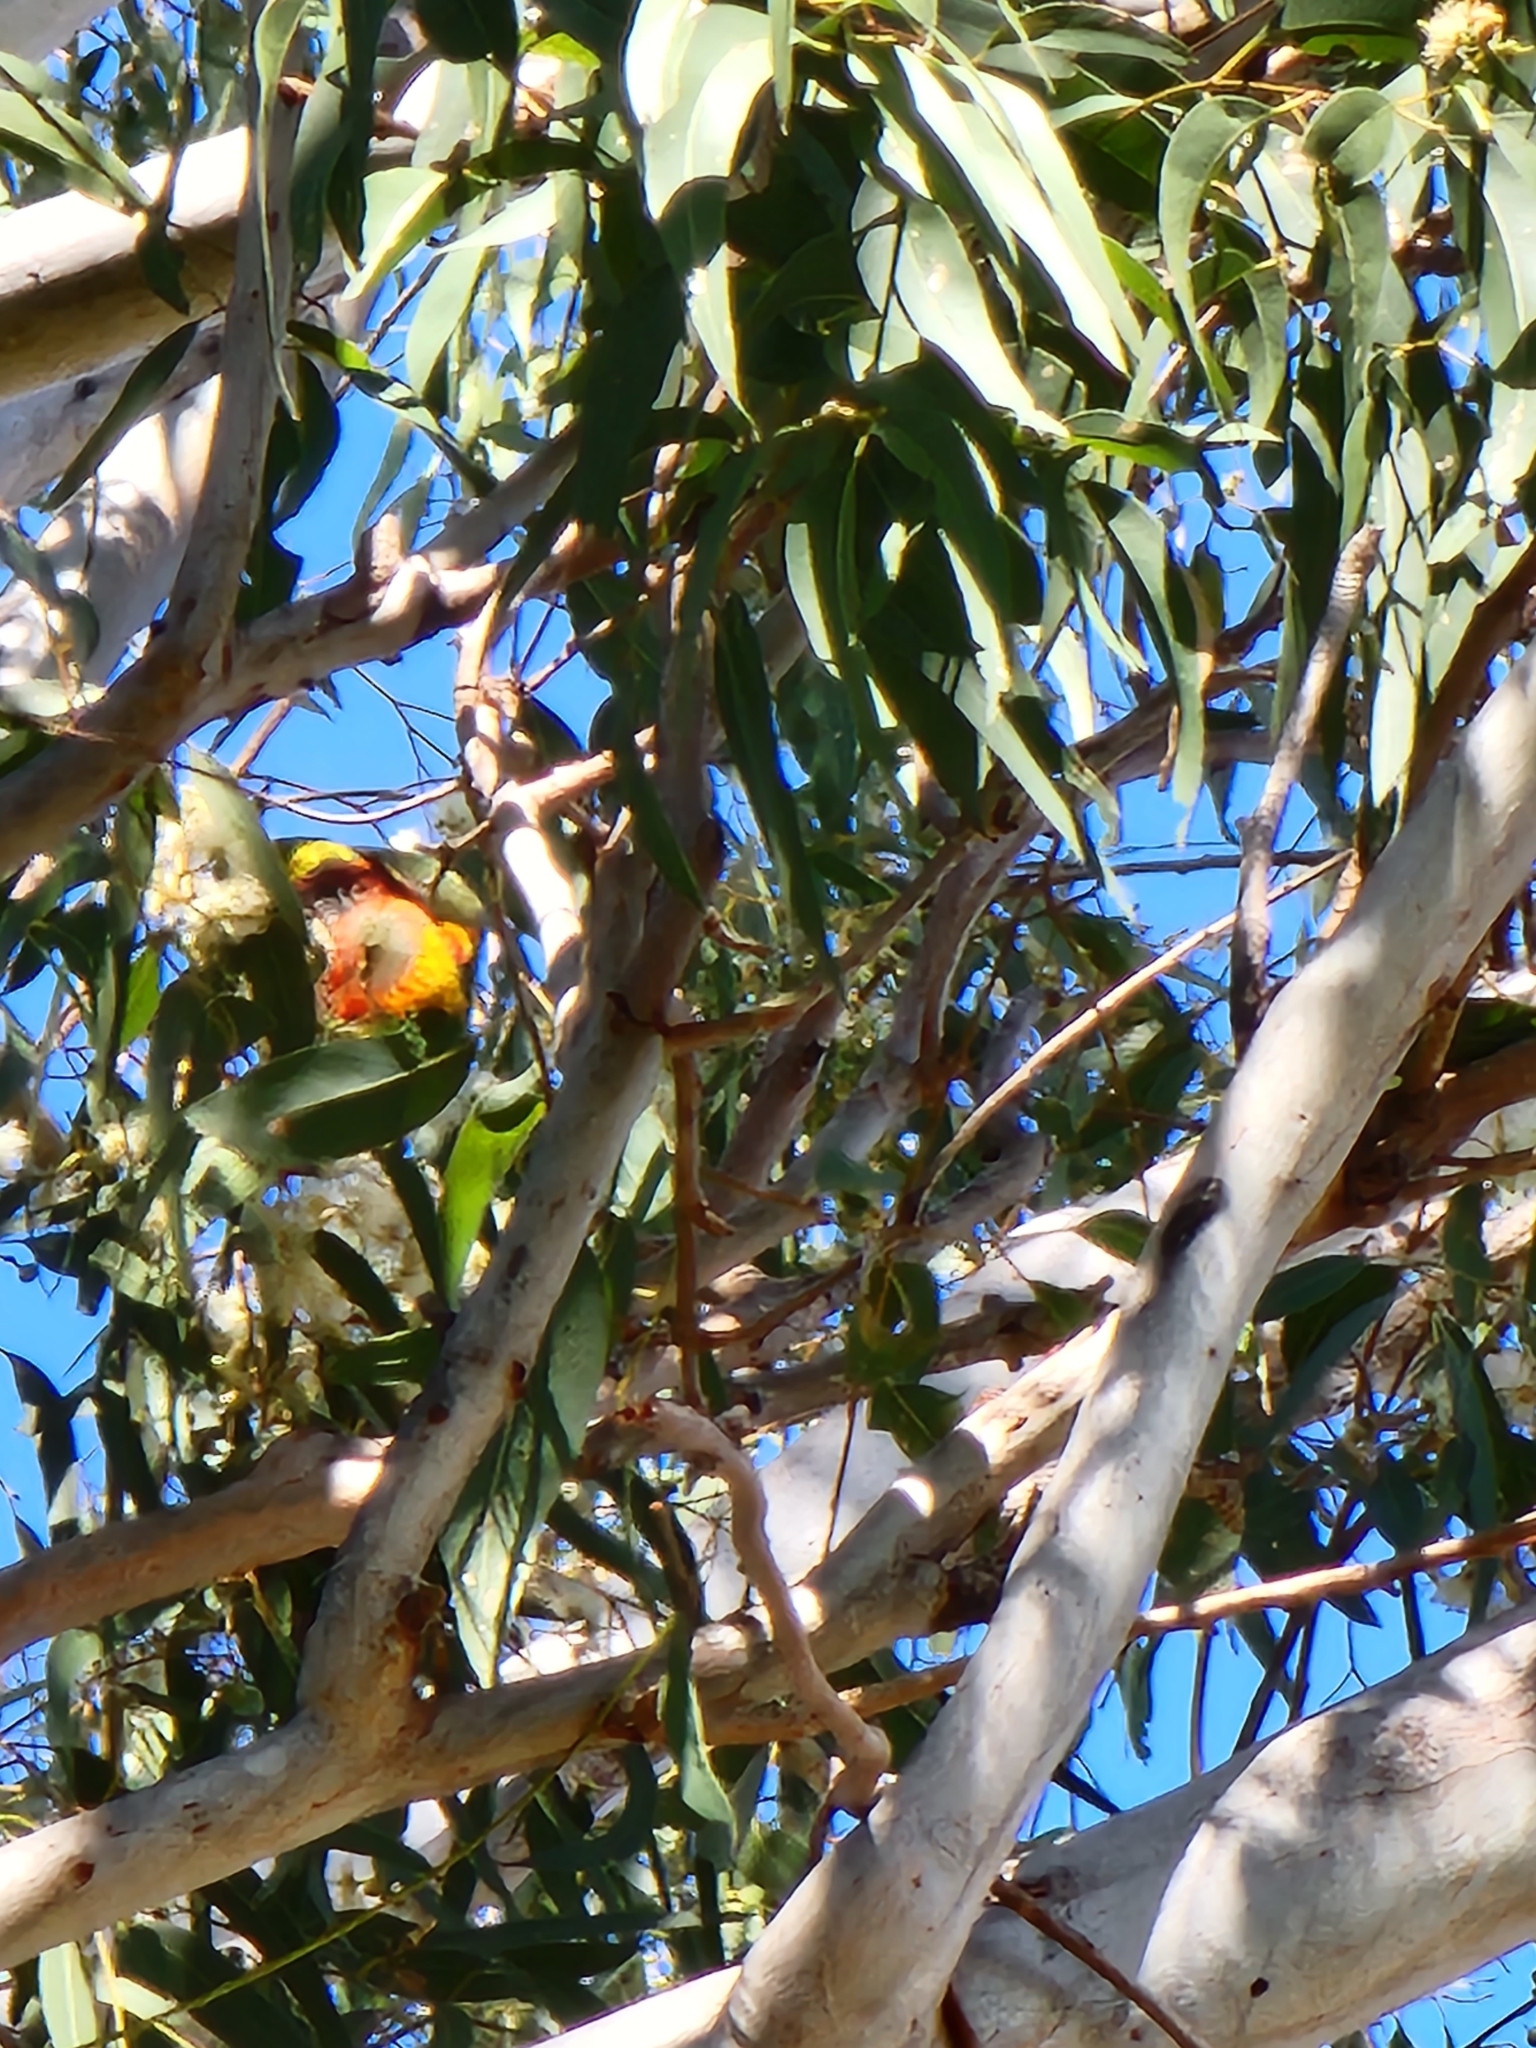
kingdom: Animalia
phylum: Chordata
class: Aves
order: Psittaciformes
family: Psittacidae
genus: Trichoglossus
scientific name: Trichoglossus haematodus
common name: Coconut lorikeet
